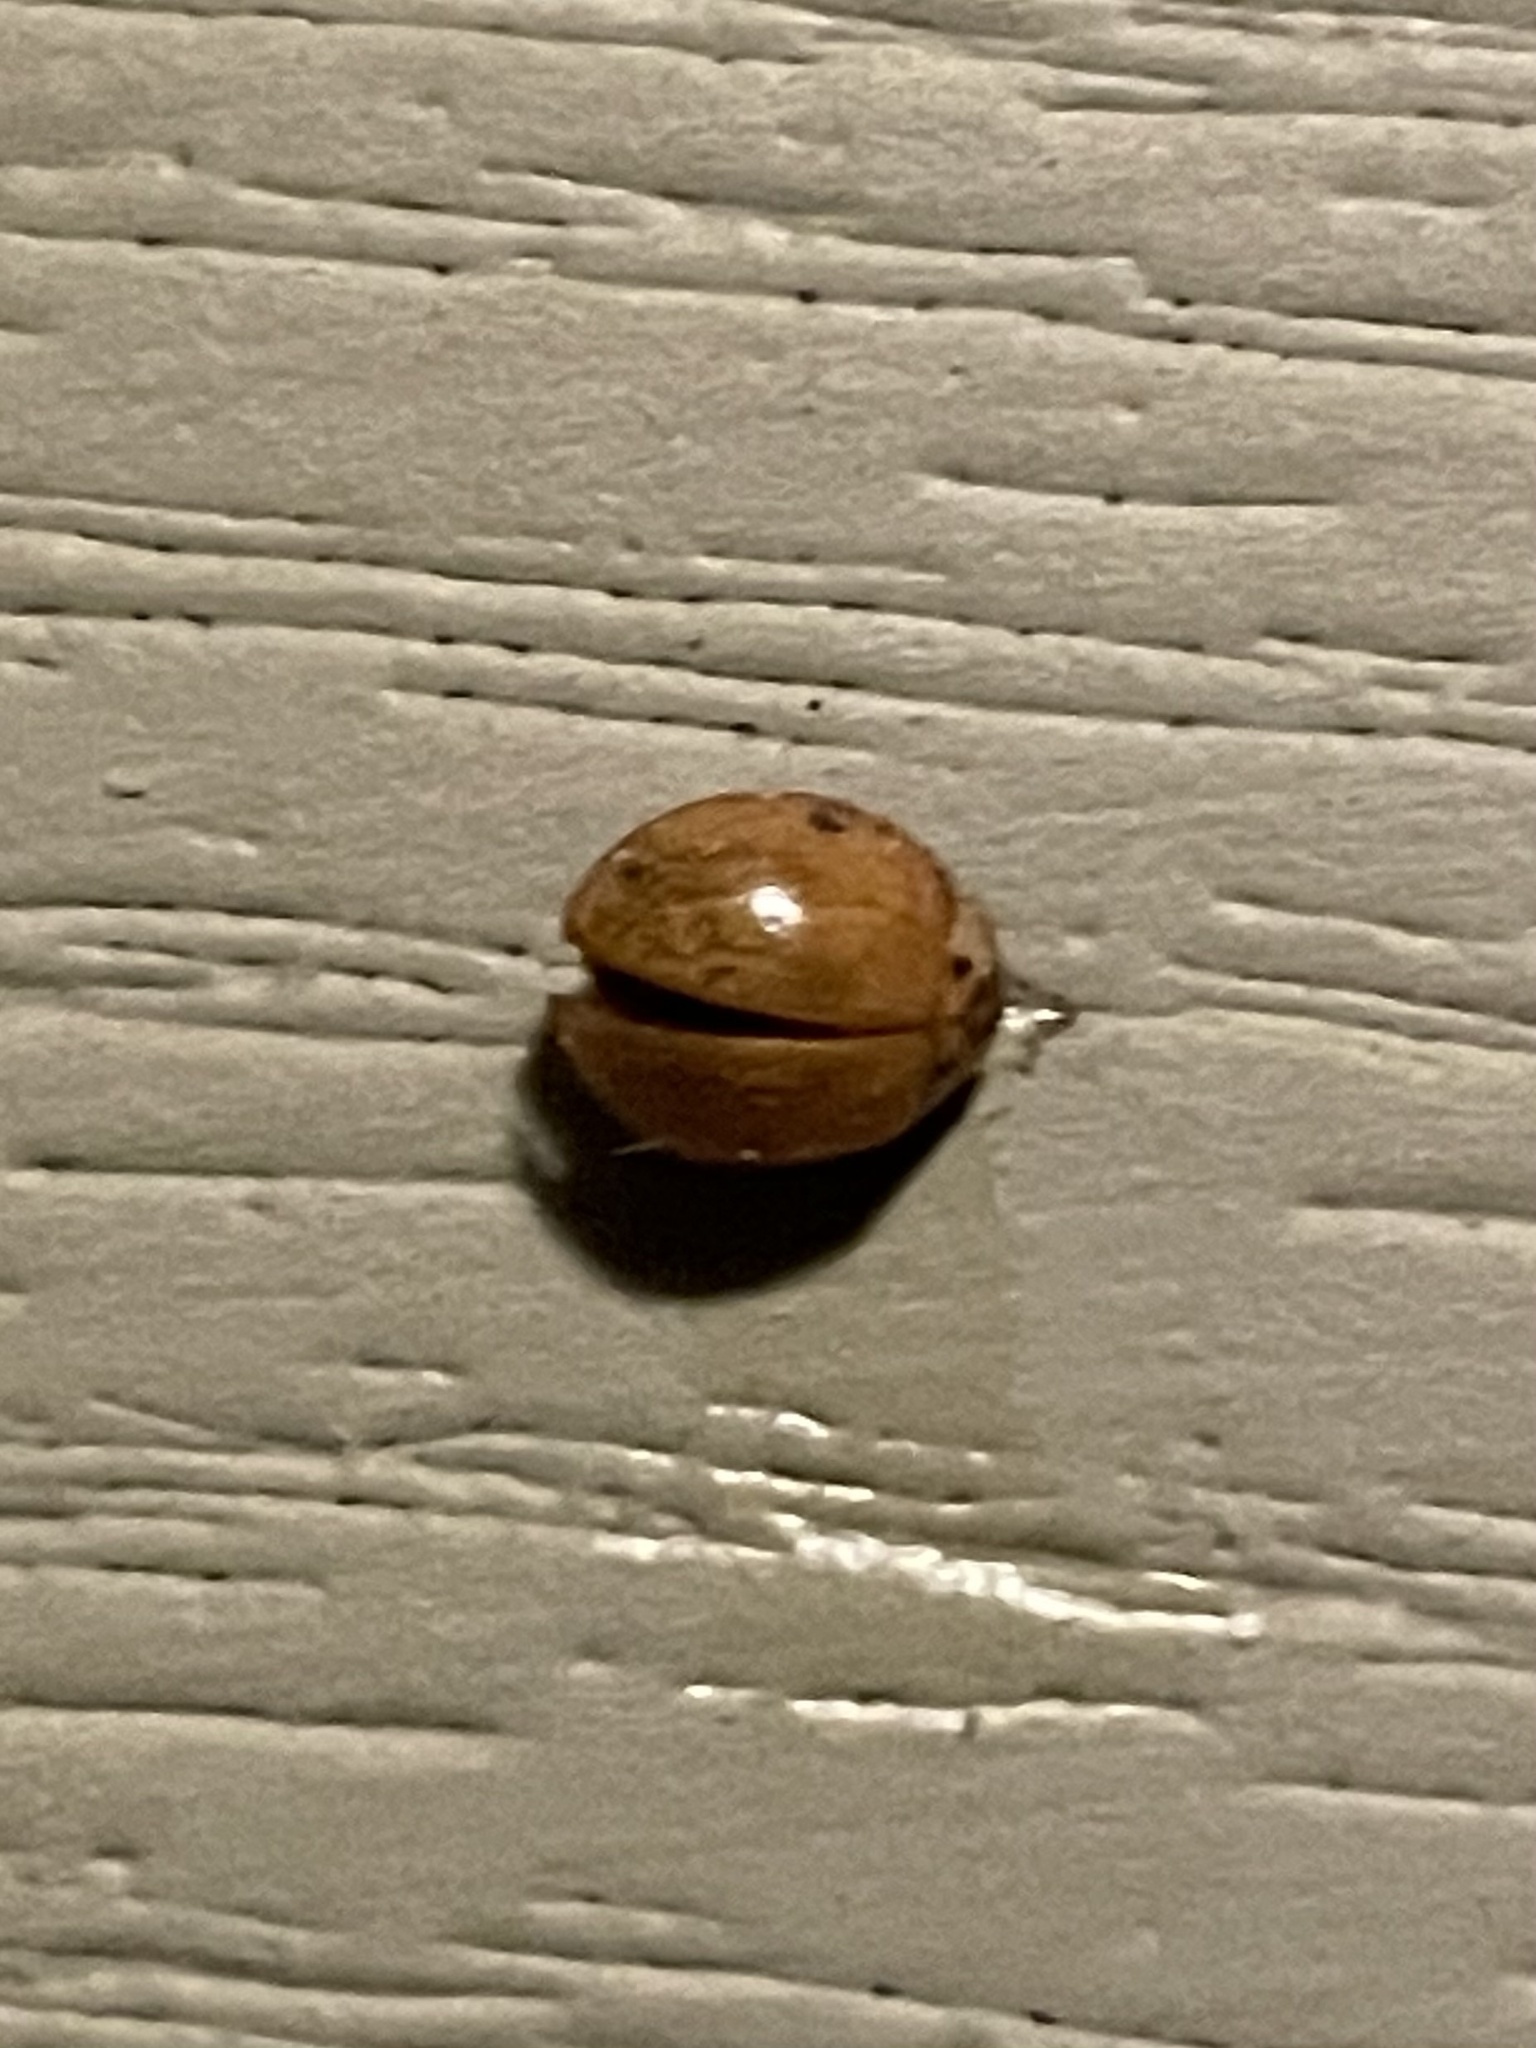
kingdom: Animalia
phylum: Arthropoda
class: Insecta
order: Coleoptera
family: Coccinellidae
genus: Harmonia
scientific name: Harmonia axyridis
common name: Harlequin ladybird
